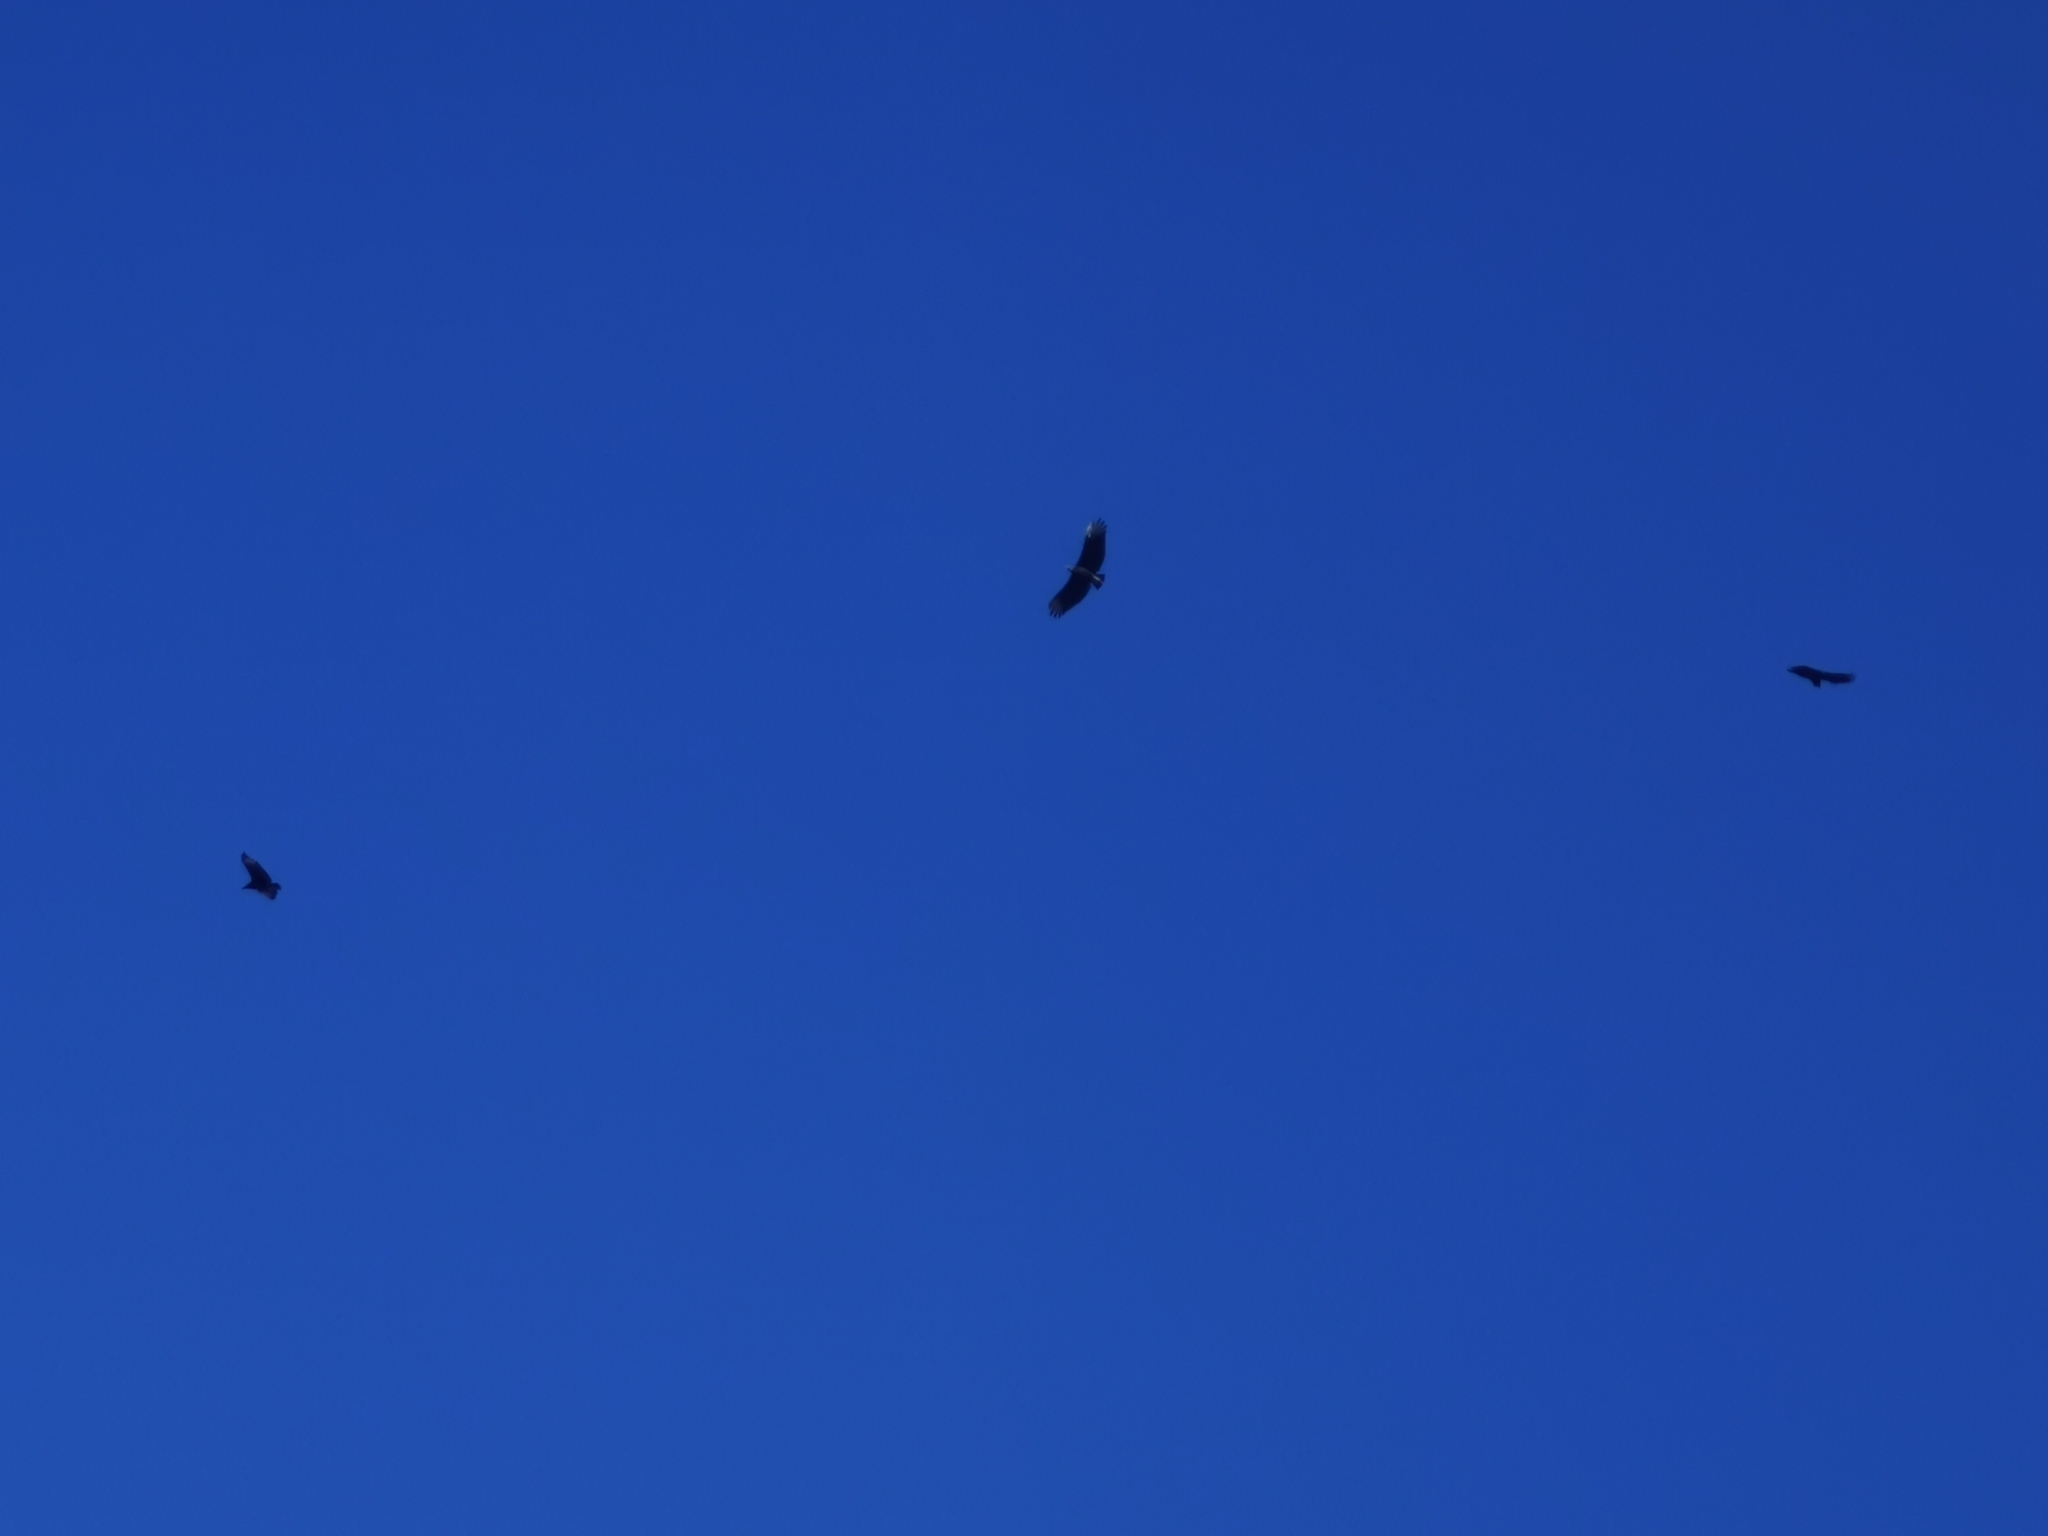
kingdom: Animalia
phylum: Chordata
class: Aves
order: Accipitriformes
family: Cathartidae
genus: Coragyps
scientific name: Coragyps atratus
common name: Black vulture
